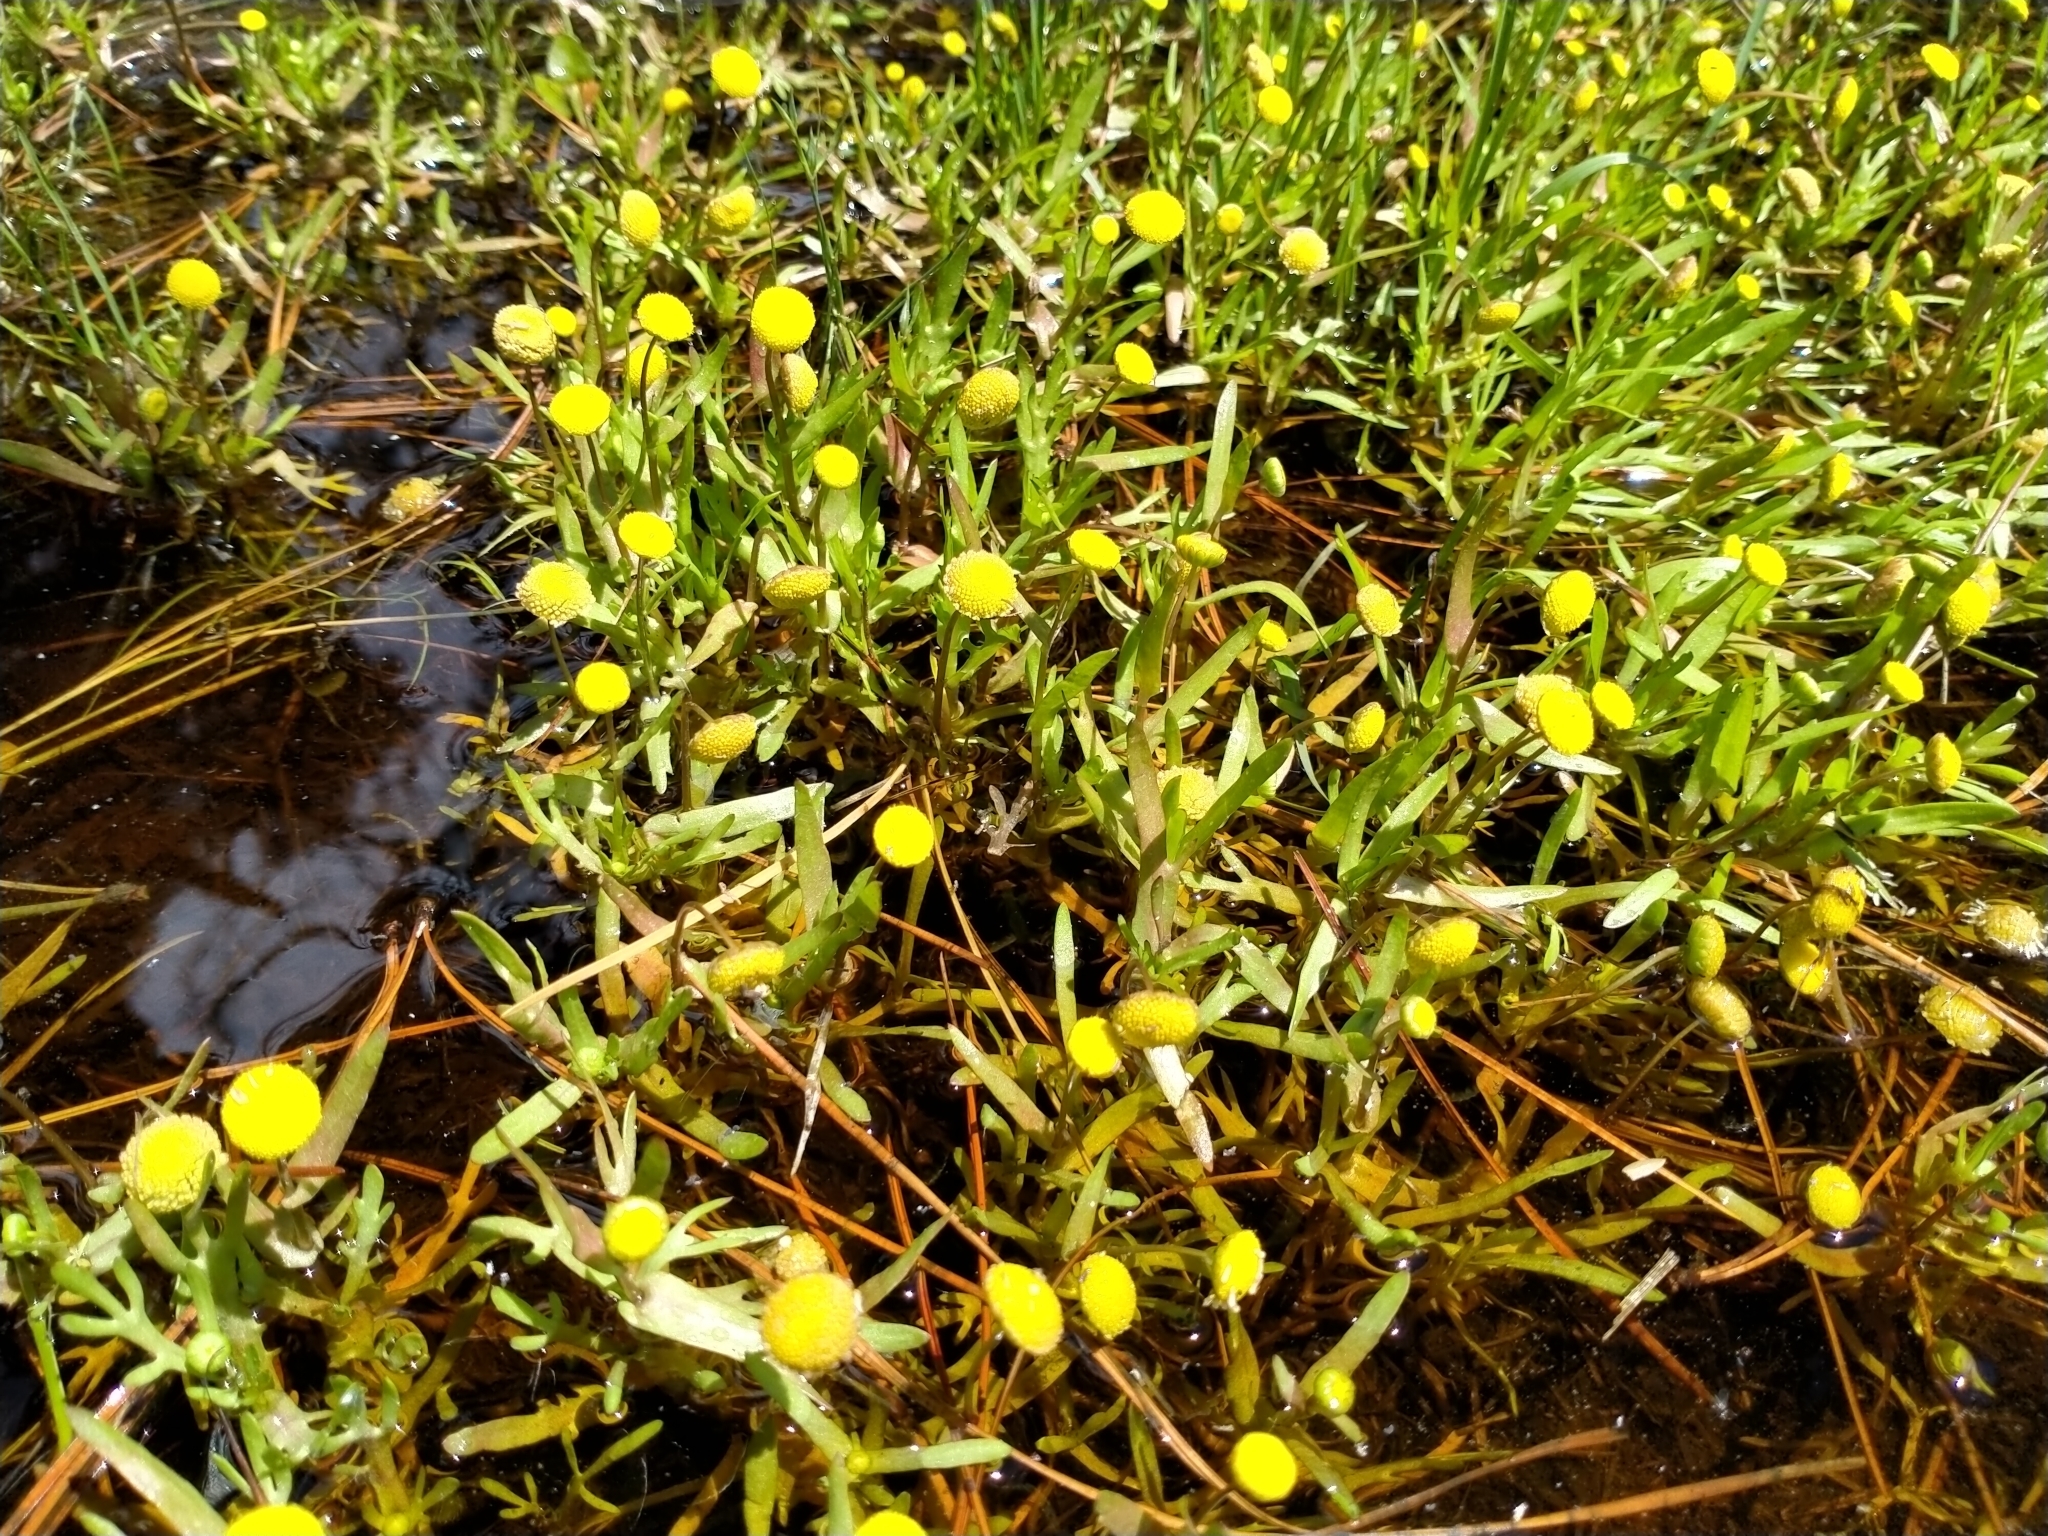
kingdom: Plantae
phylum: Tracheophyta
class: Magnoliopsida
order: Asterales
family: Asteraceae
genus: Cotula
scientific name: Cotula coronopifolia
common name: Buttonweed
